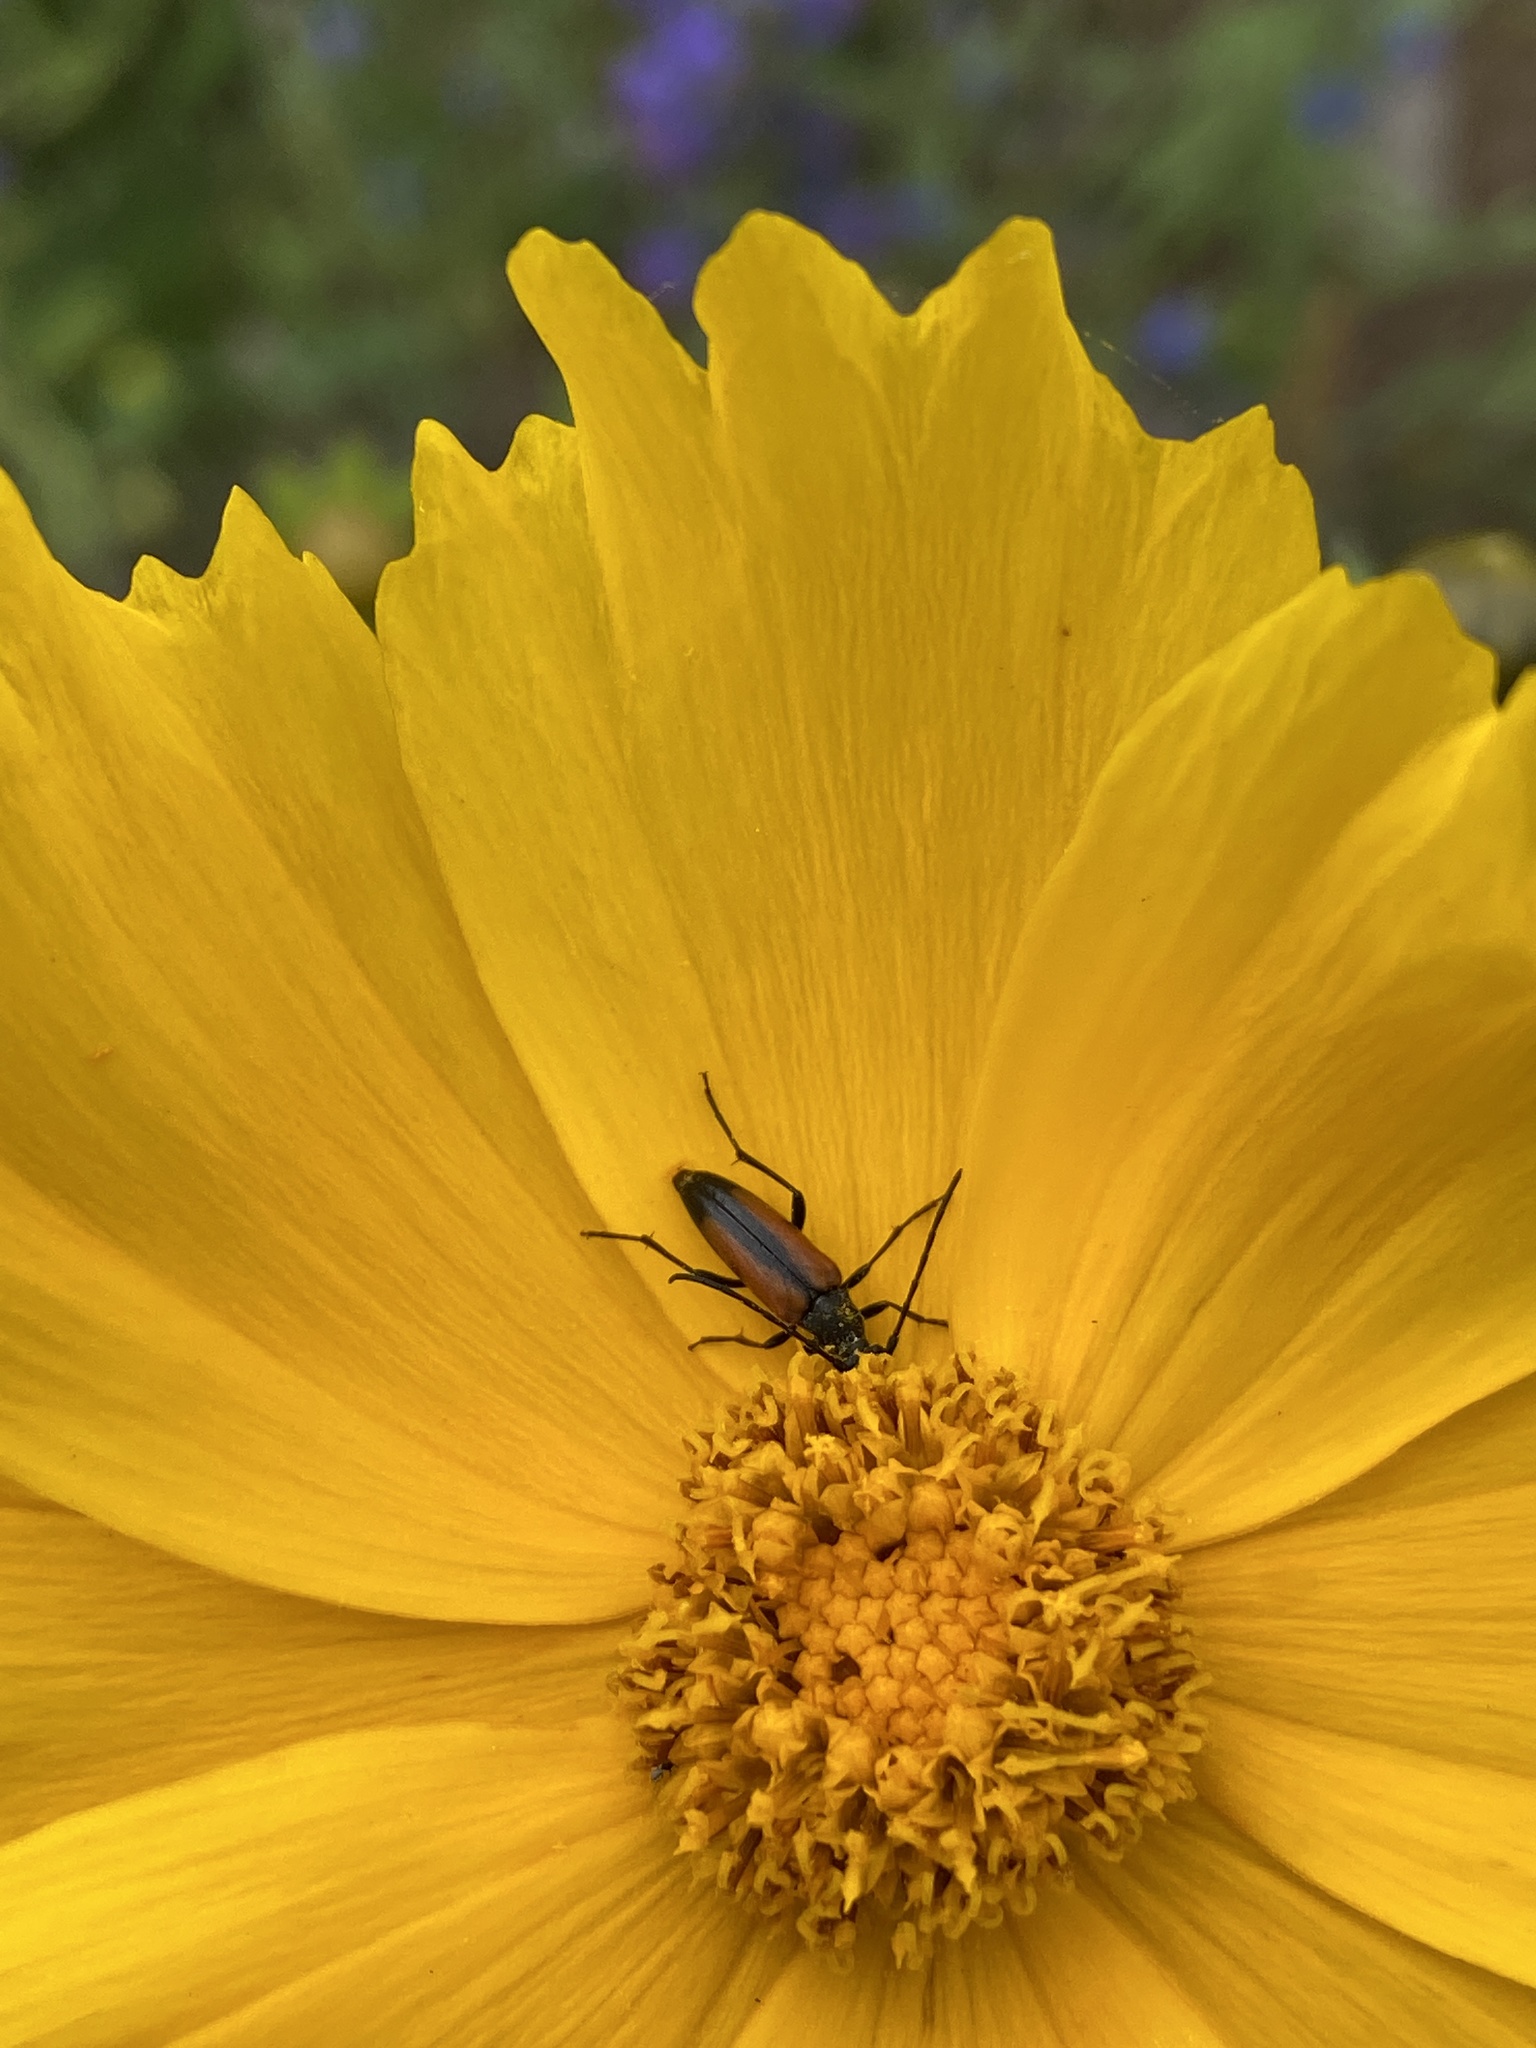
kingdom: Animalia
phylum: Arthropoda
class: Insecta
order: Coleoptera
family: Cerambycidae
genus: Stenurella
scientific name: Stenurella melanura
